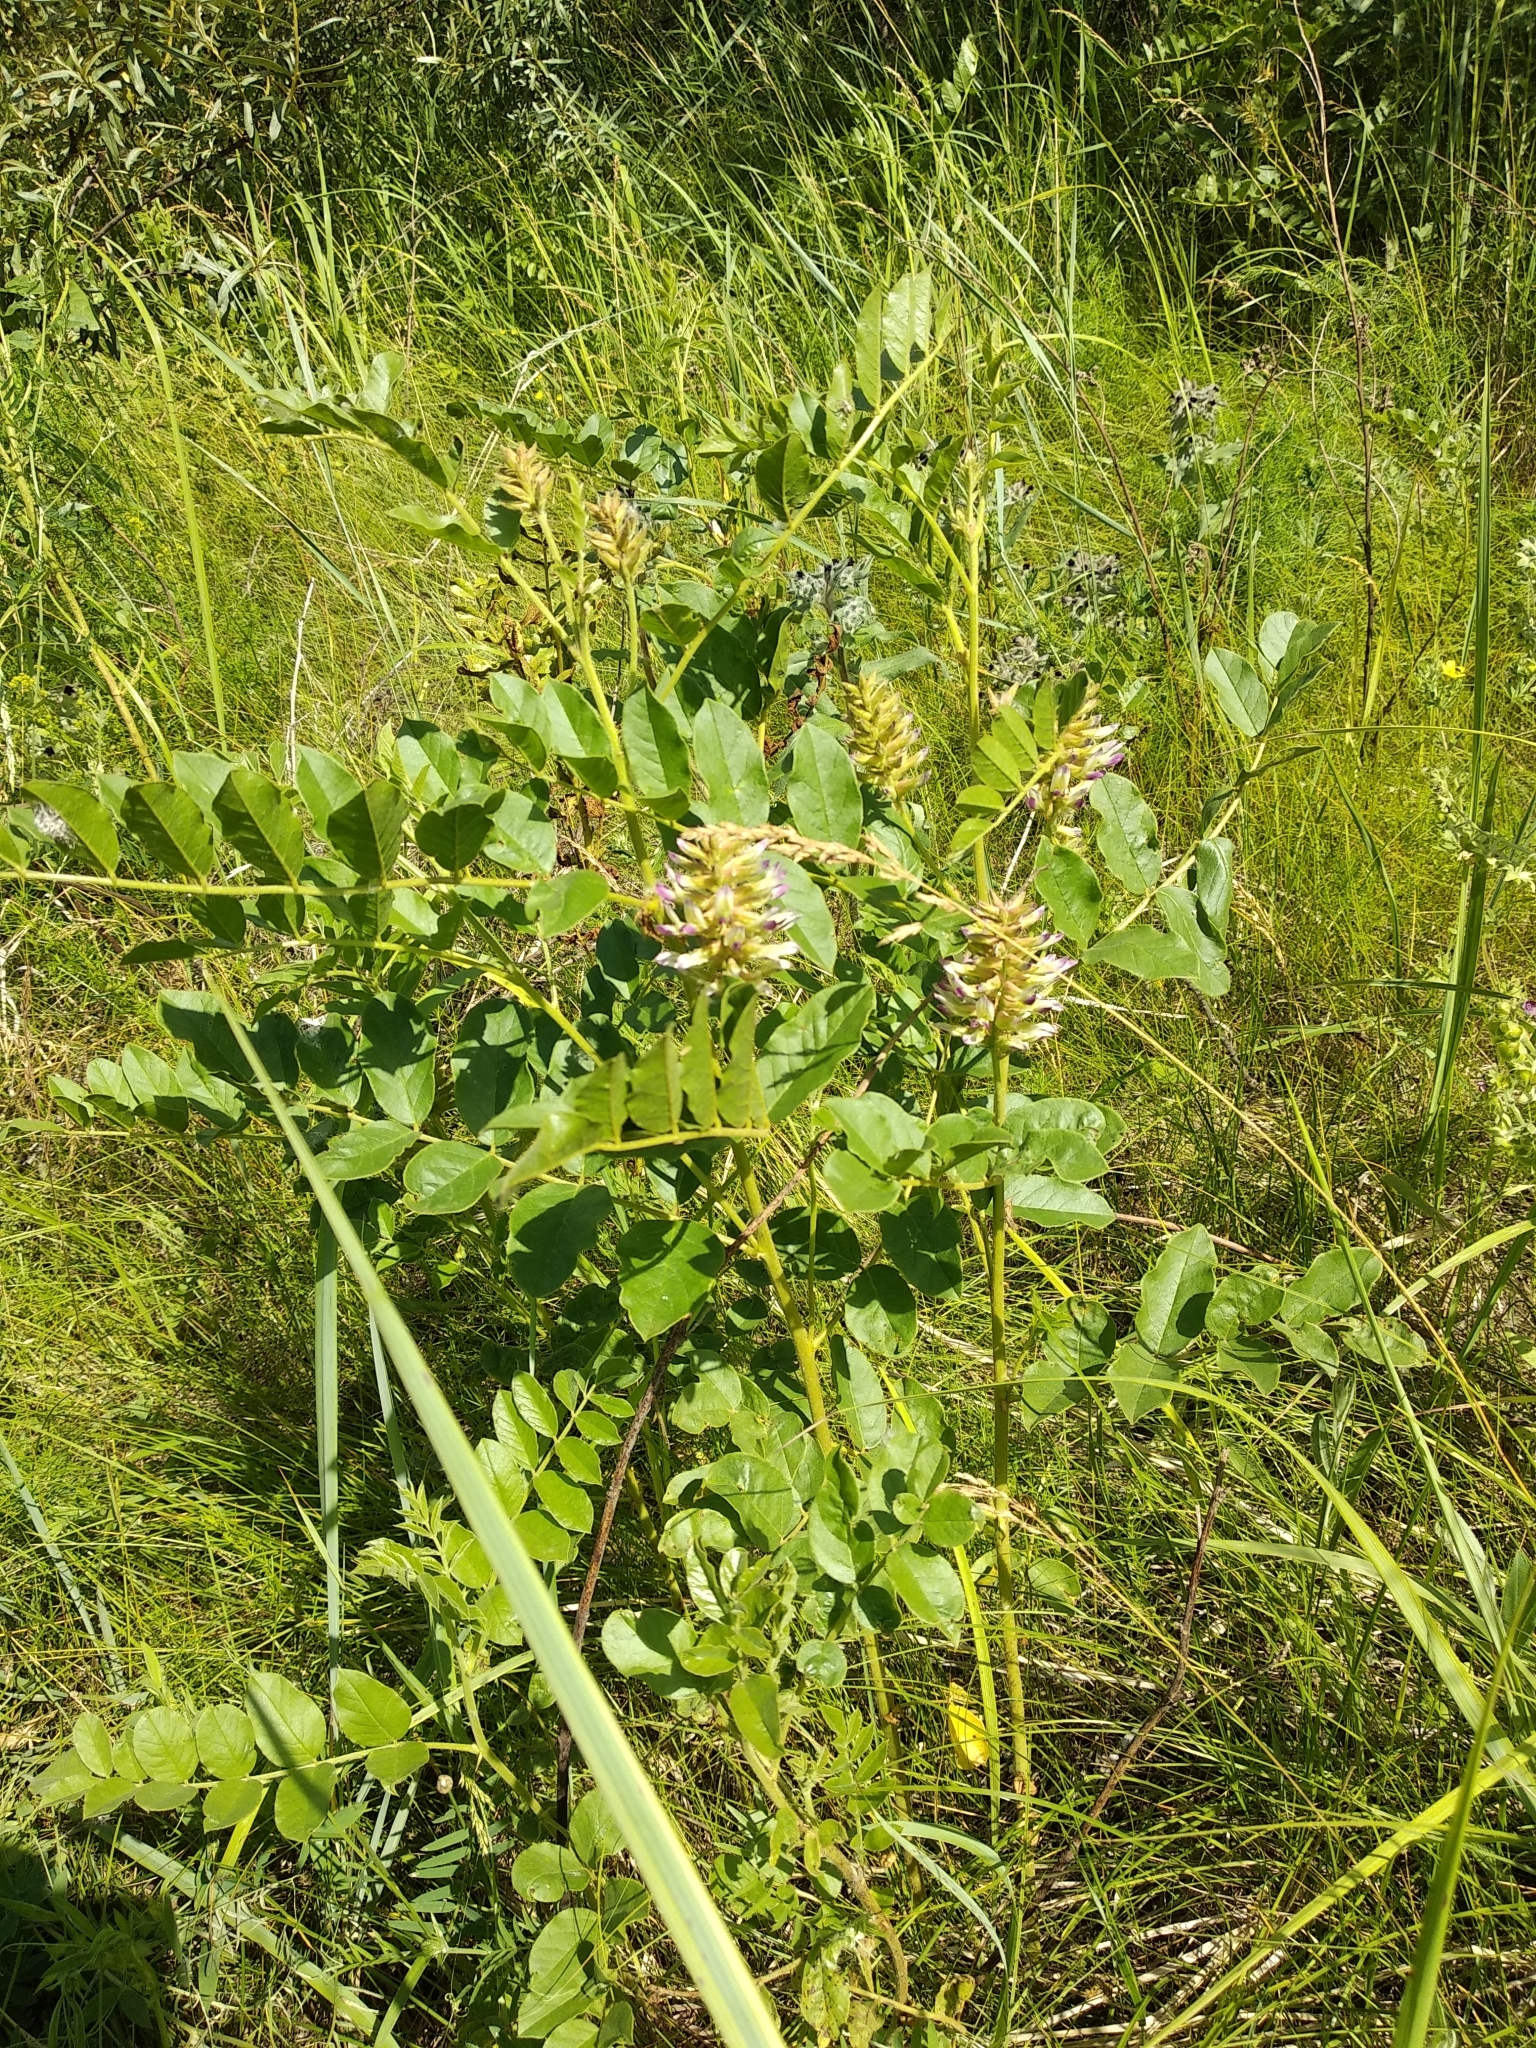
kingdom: Plantae
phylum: Tracheophyta
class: Magnoliopsida
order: Fabales
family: Fabaceae
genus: Glycyrrhiza
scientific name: Glycyrrhiza uralensis
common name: Chinese licorice
